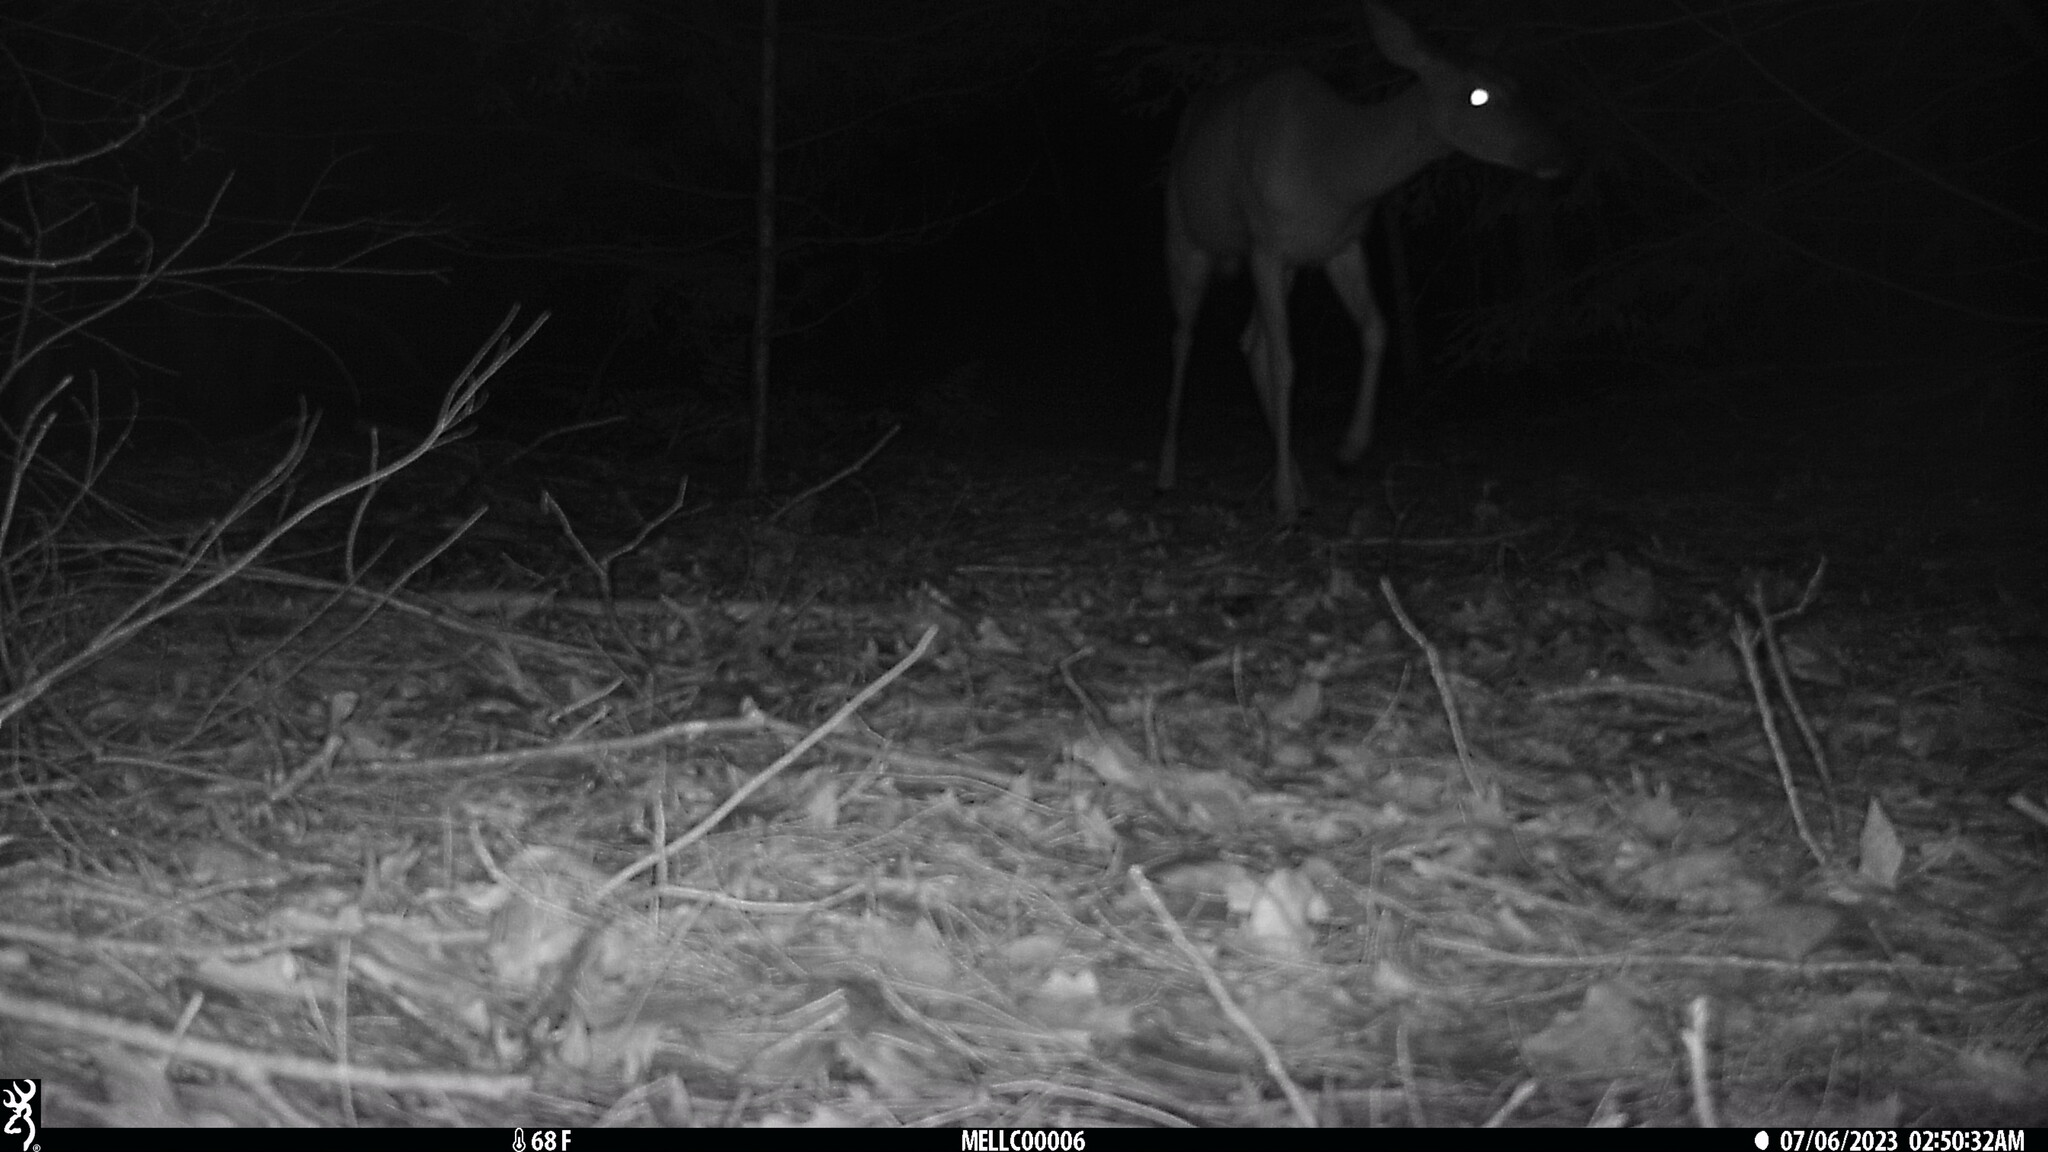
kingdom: Animalia
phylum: Chordata
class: Mammalia
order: Artiodactyla
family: Cervidae
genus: Odocoileus
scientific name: Odocoileus virginianus
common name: White-tailed deer
